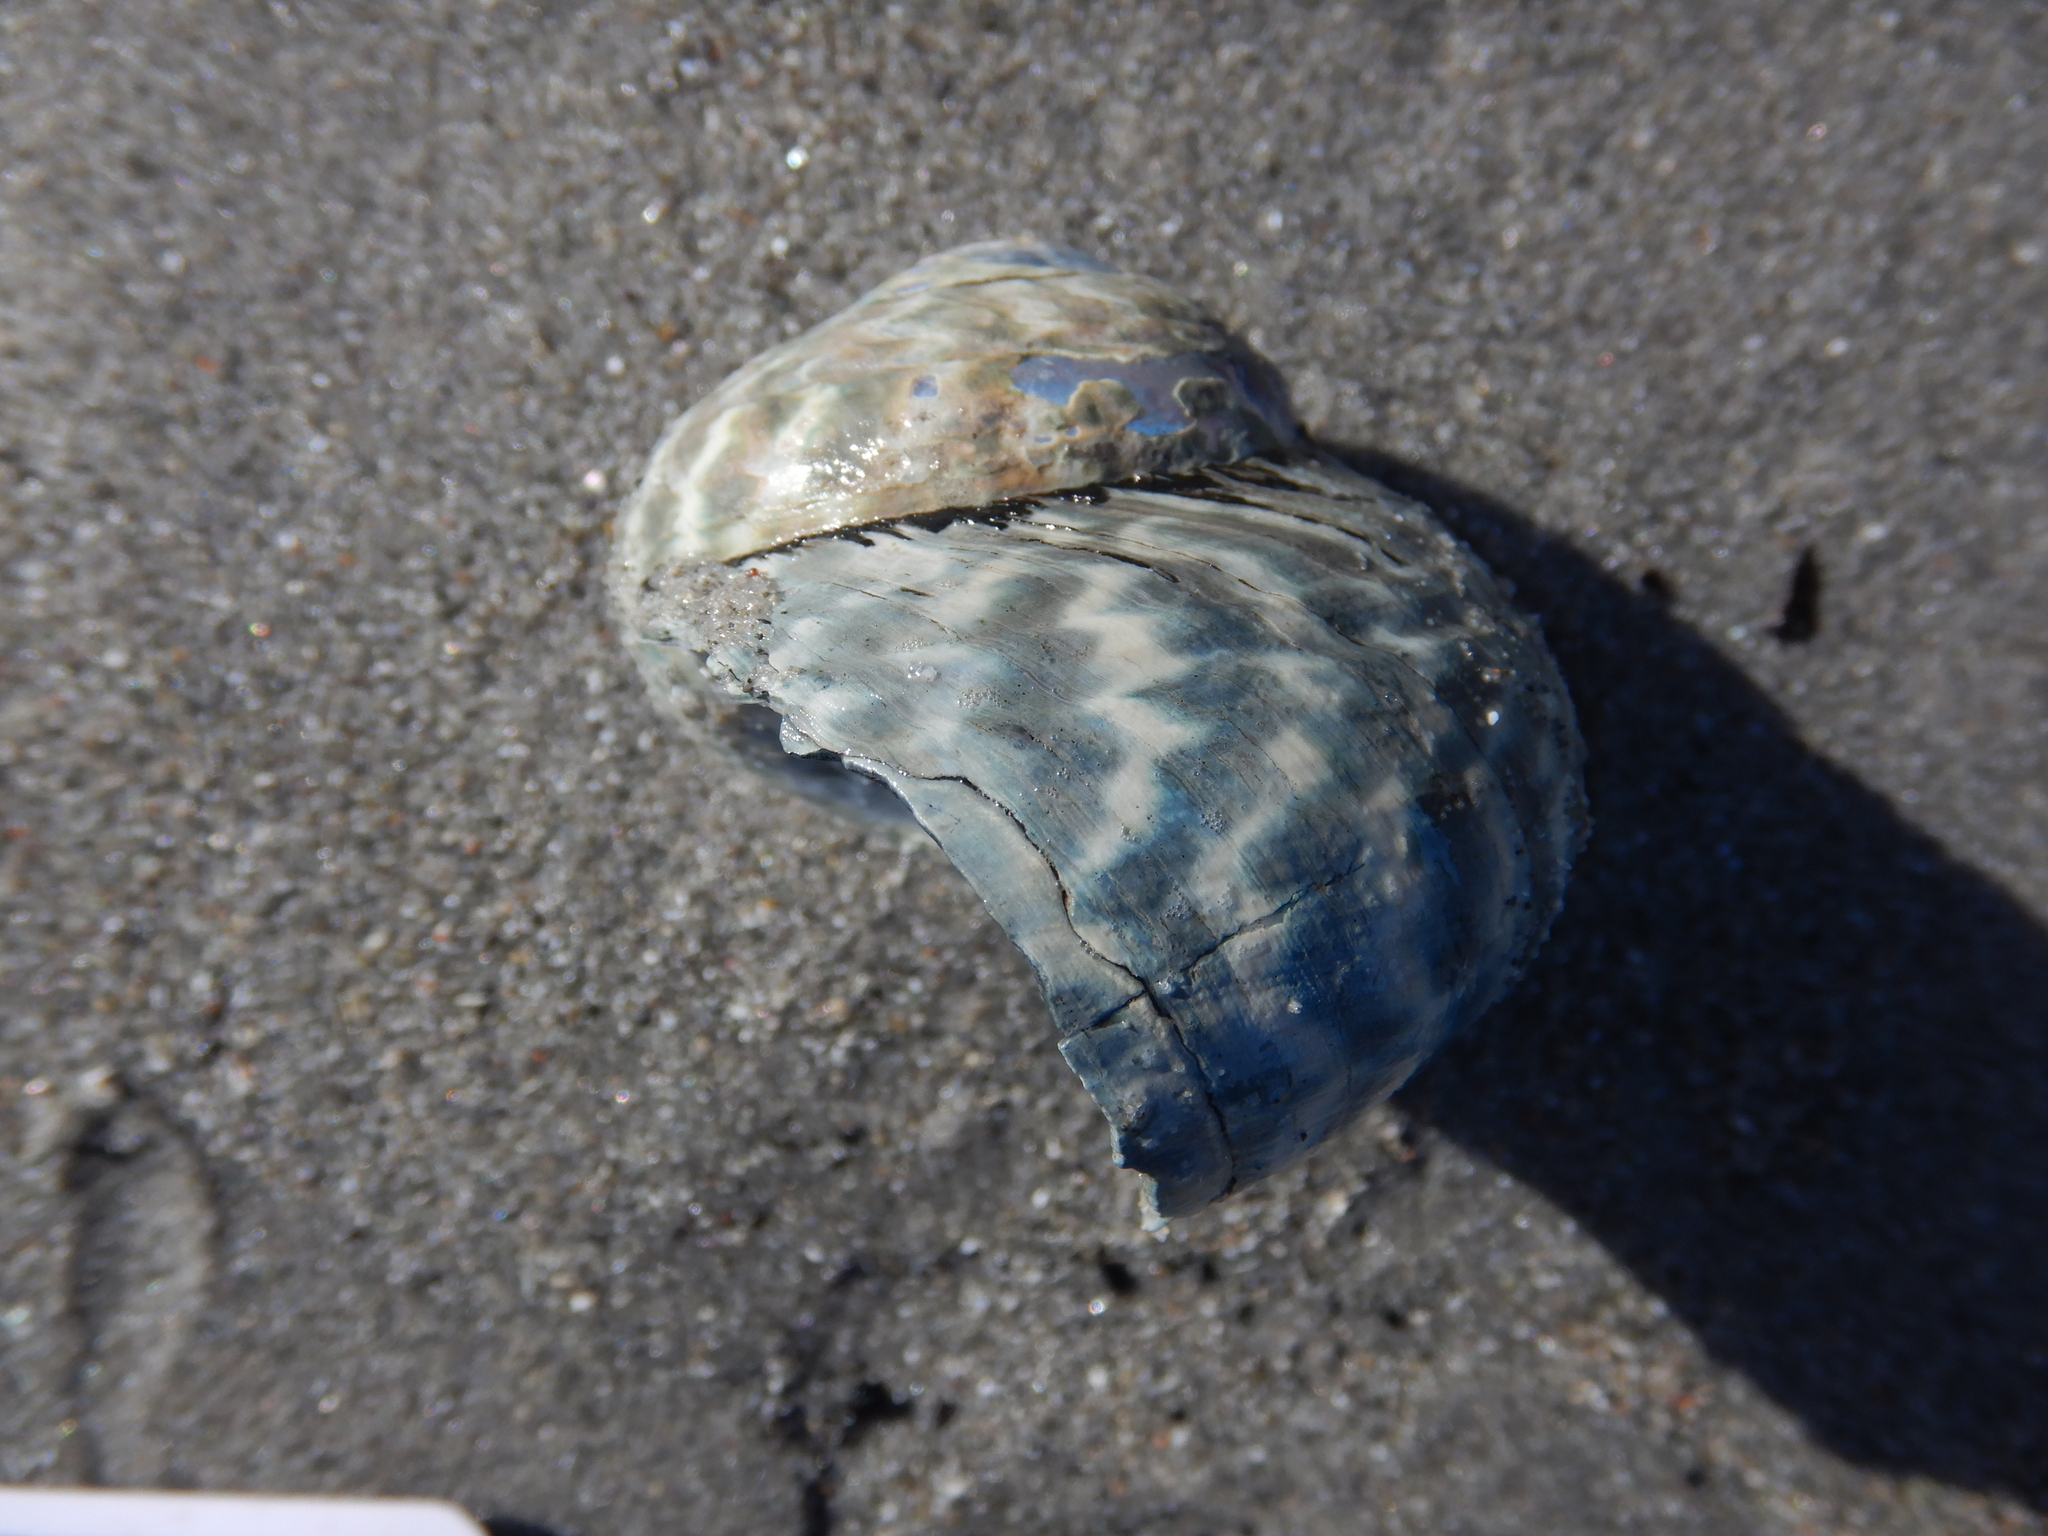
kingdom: Animalia
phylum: Mollusca
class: Gastropoda
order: Trochida
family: Turbinidae
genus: Lunella
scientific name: Lunella undulata
